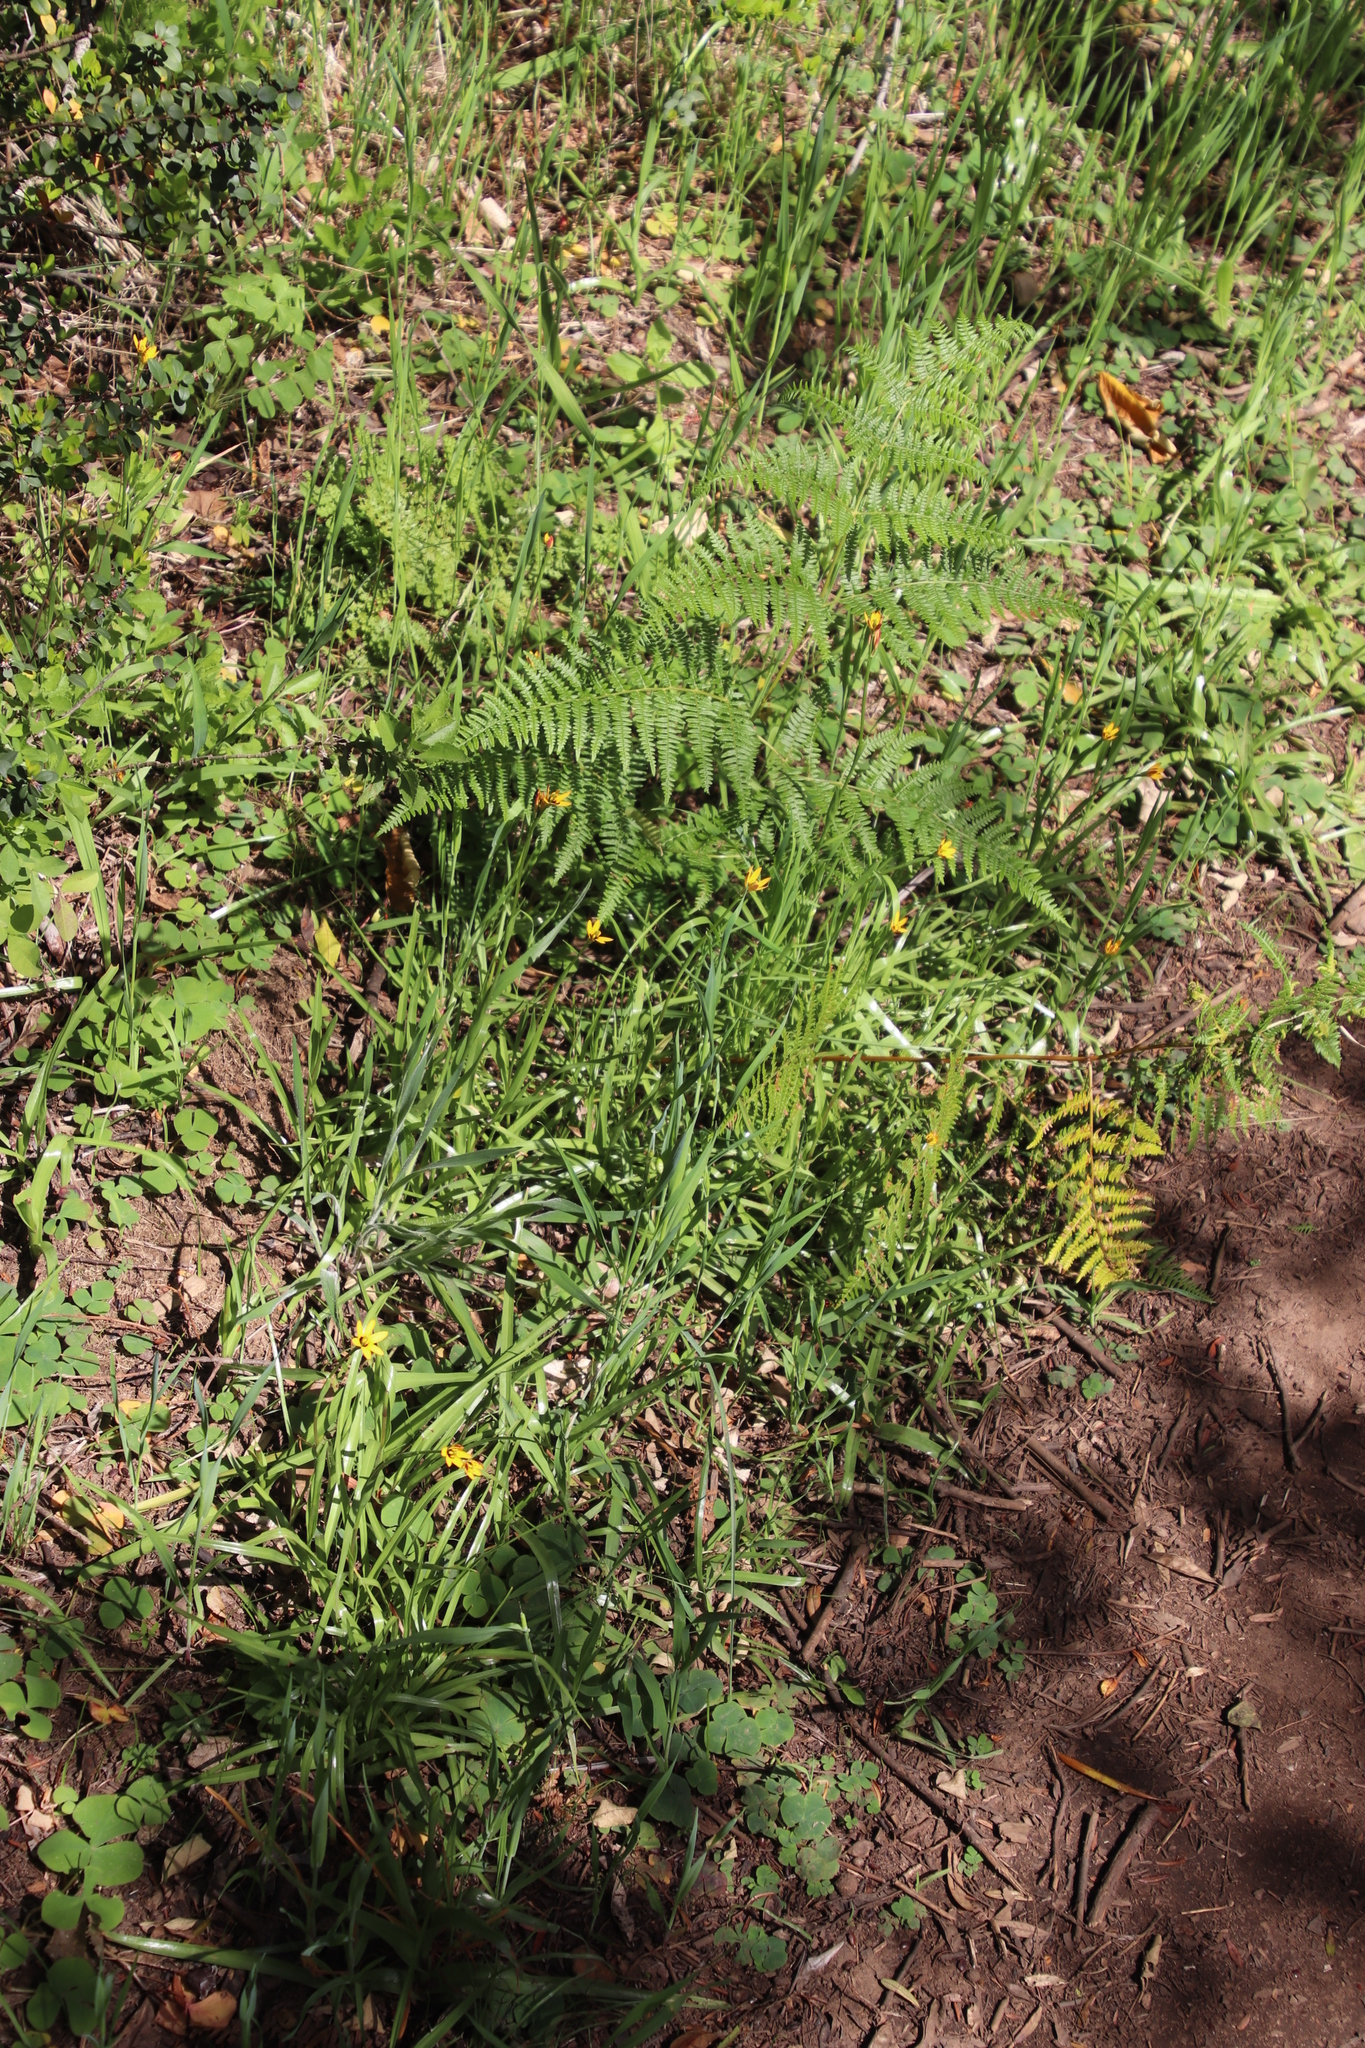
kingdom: Plantae
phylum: Tracheophyta
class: Polypodiopsida
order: Polypodiales
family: Dennstaedtiaceae
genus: Pteridium
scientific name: Pteridium aquilinum
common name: Bracken
